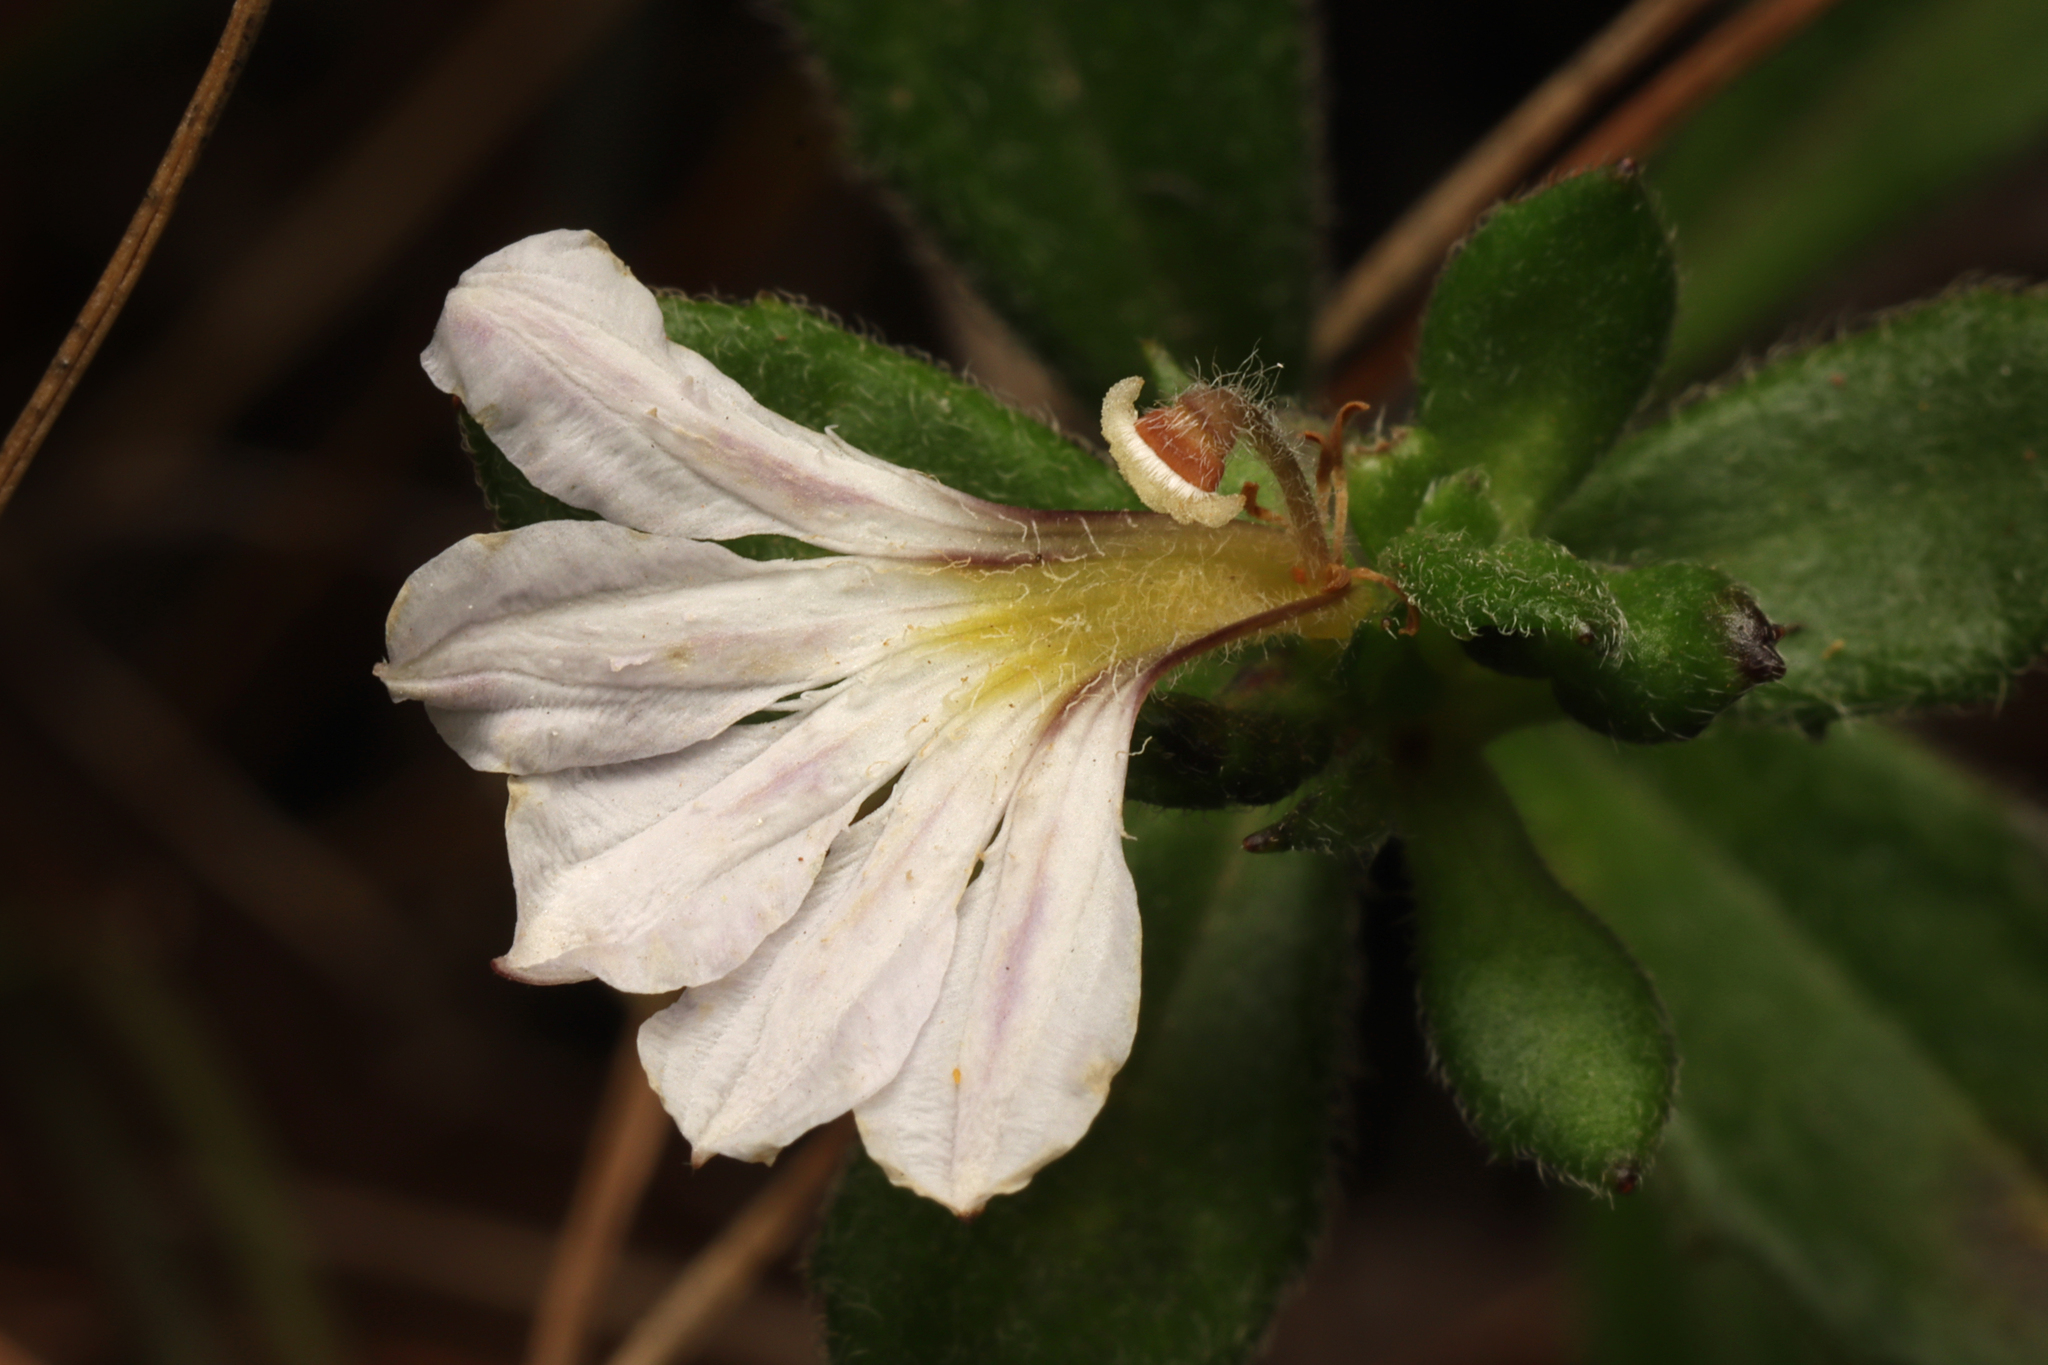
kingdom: Plantae
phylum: Tracheophyta
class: Magnoliopsida
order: Asterales
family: Goodeniaceae
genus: Scaevola
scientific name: Scaevola albida
